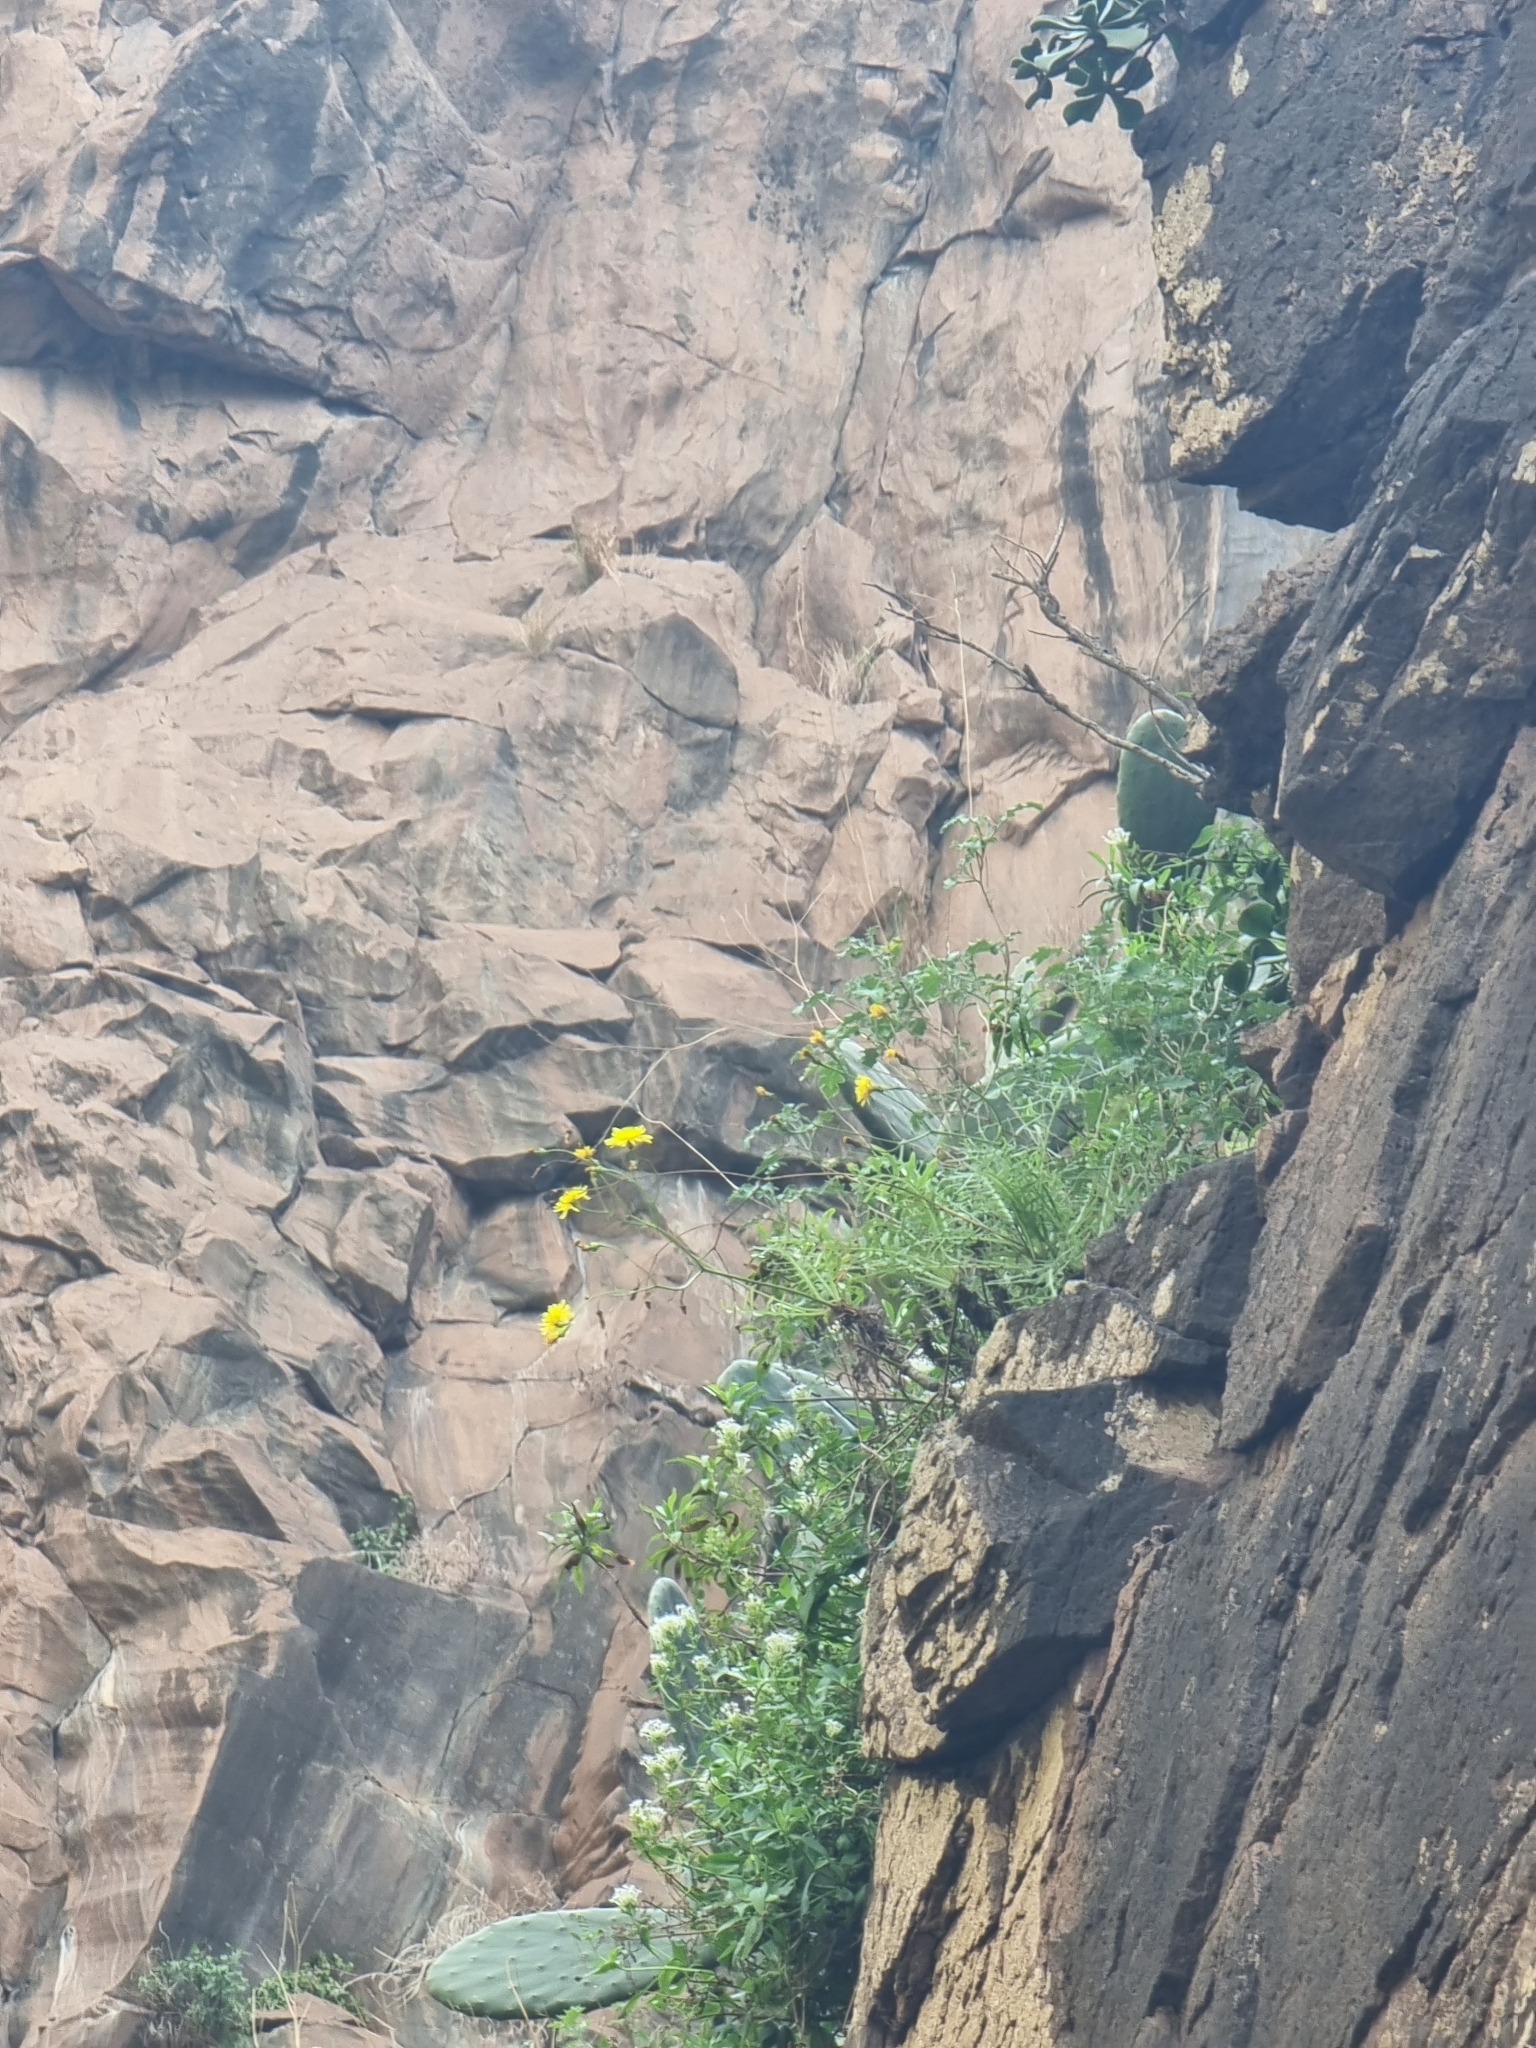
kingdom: Plantae
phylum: Tracheophyta
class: Magnoliopsida
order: Asterales
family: Asteraceae
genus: Sonchus
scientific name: Sonchus ustulatus
